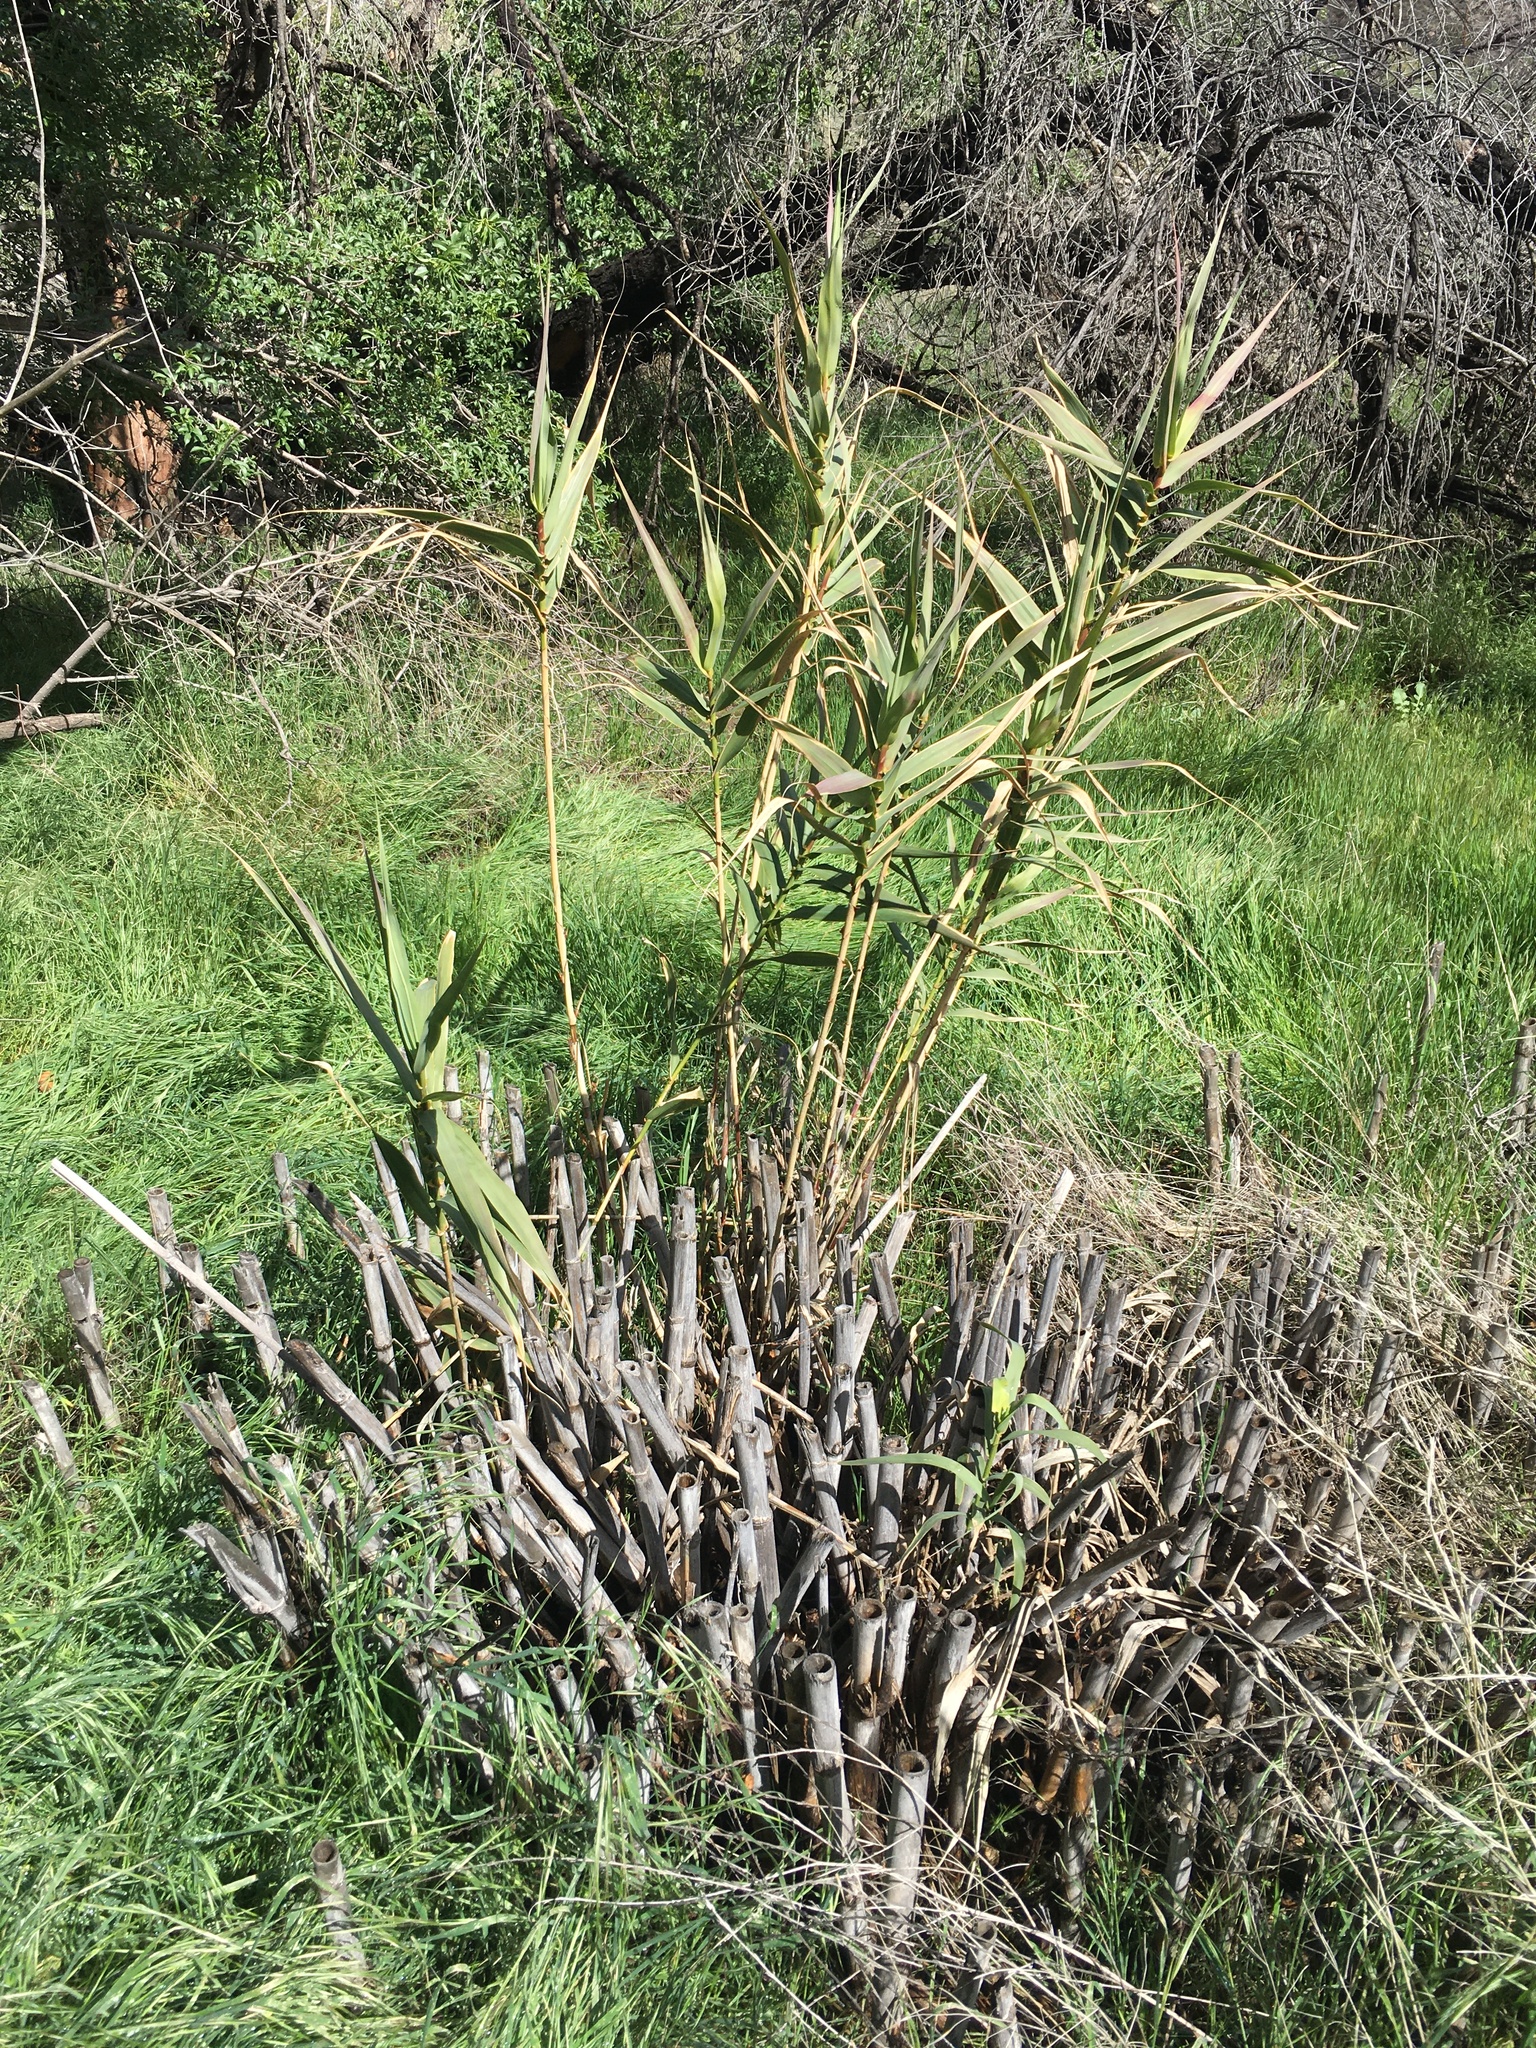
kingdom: Plantae
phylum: Tracheophyta
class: Liliopsida
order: Poales
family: Poaceae
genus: Arundo
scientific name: Arundo donax
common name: Giant reed
